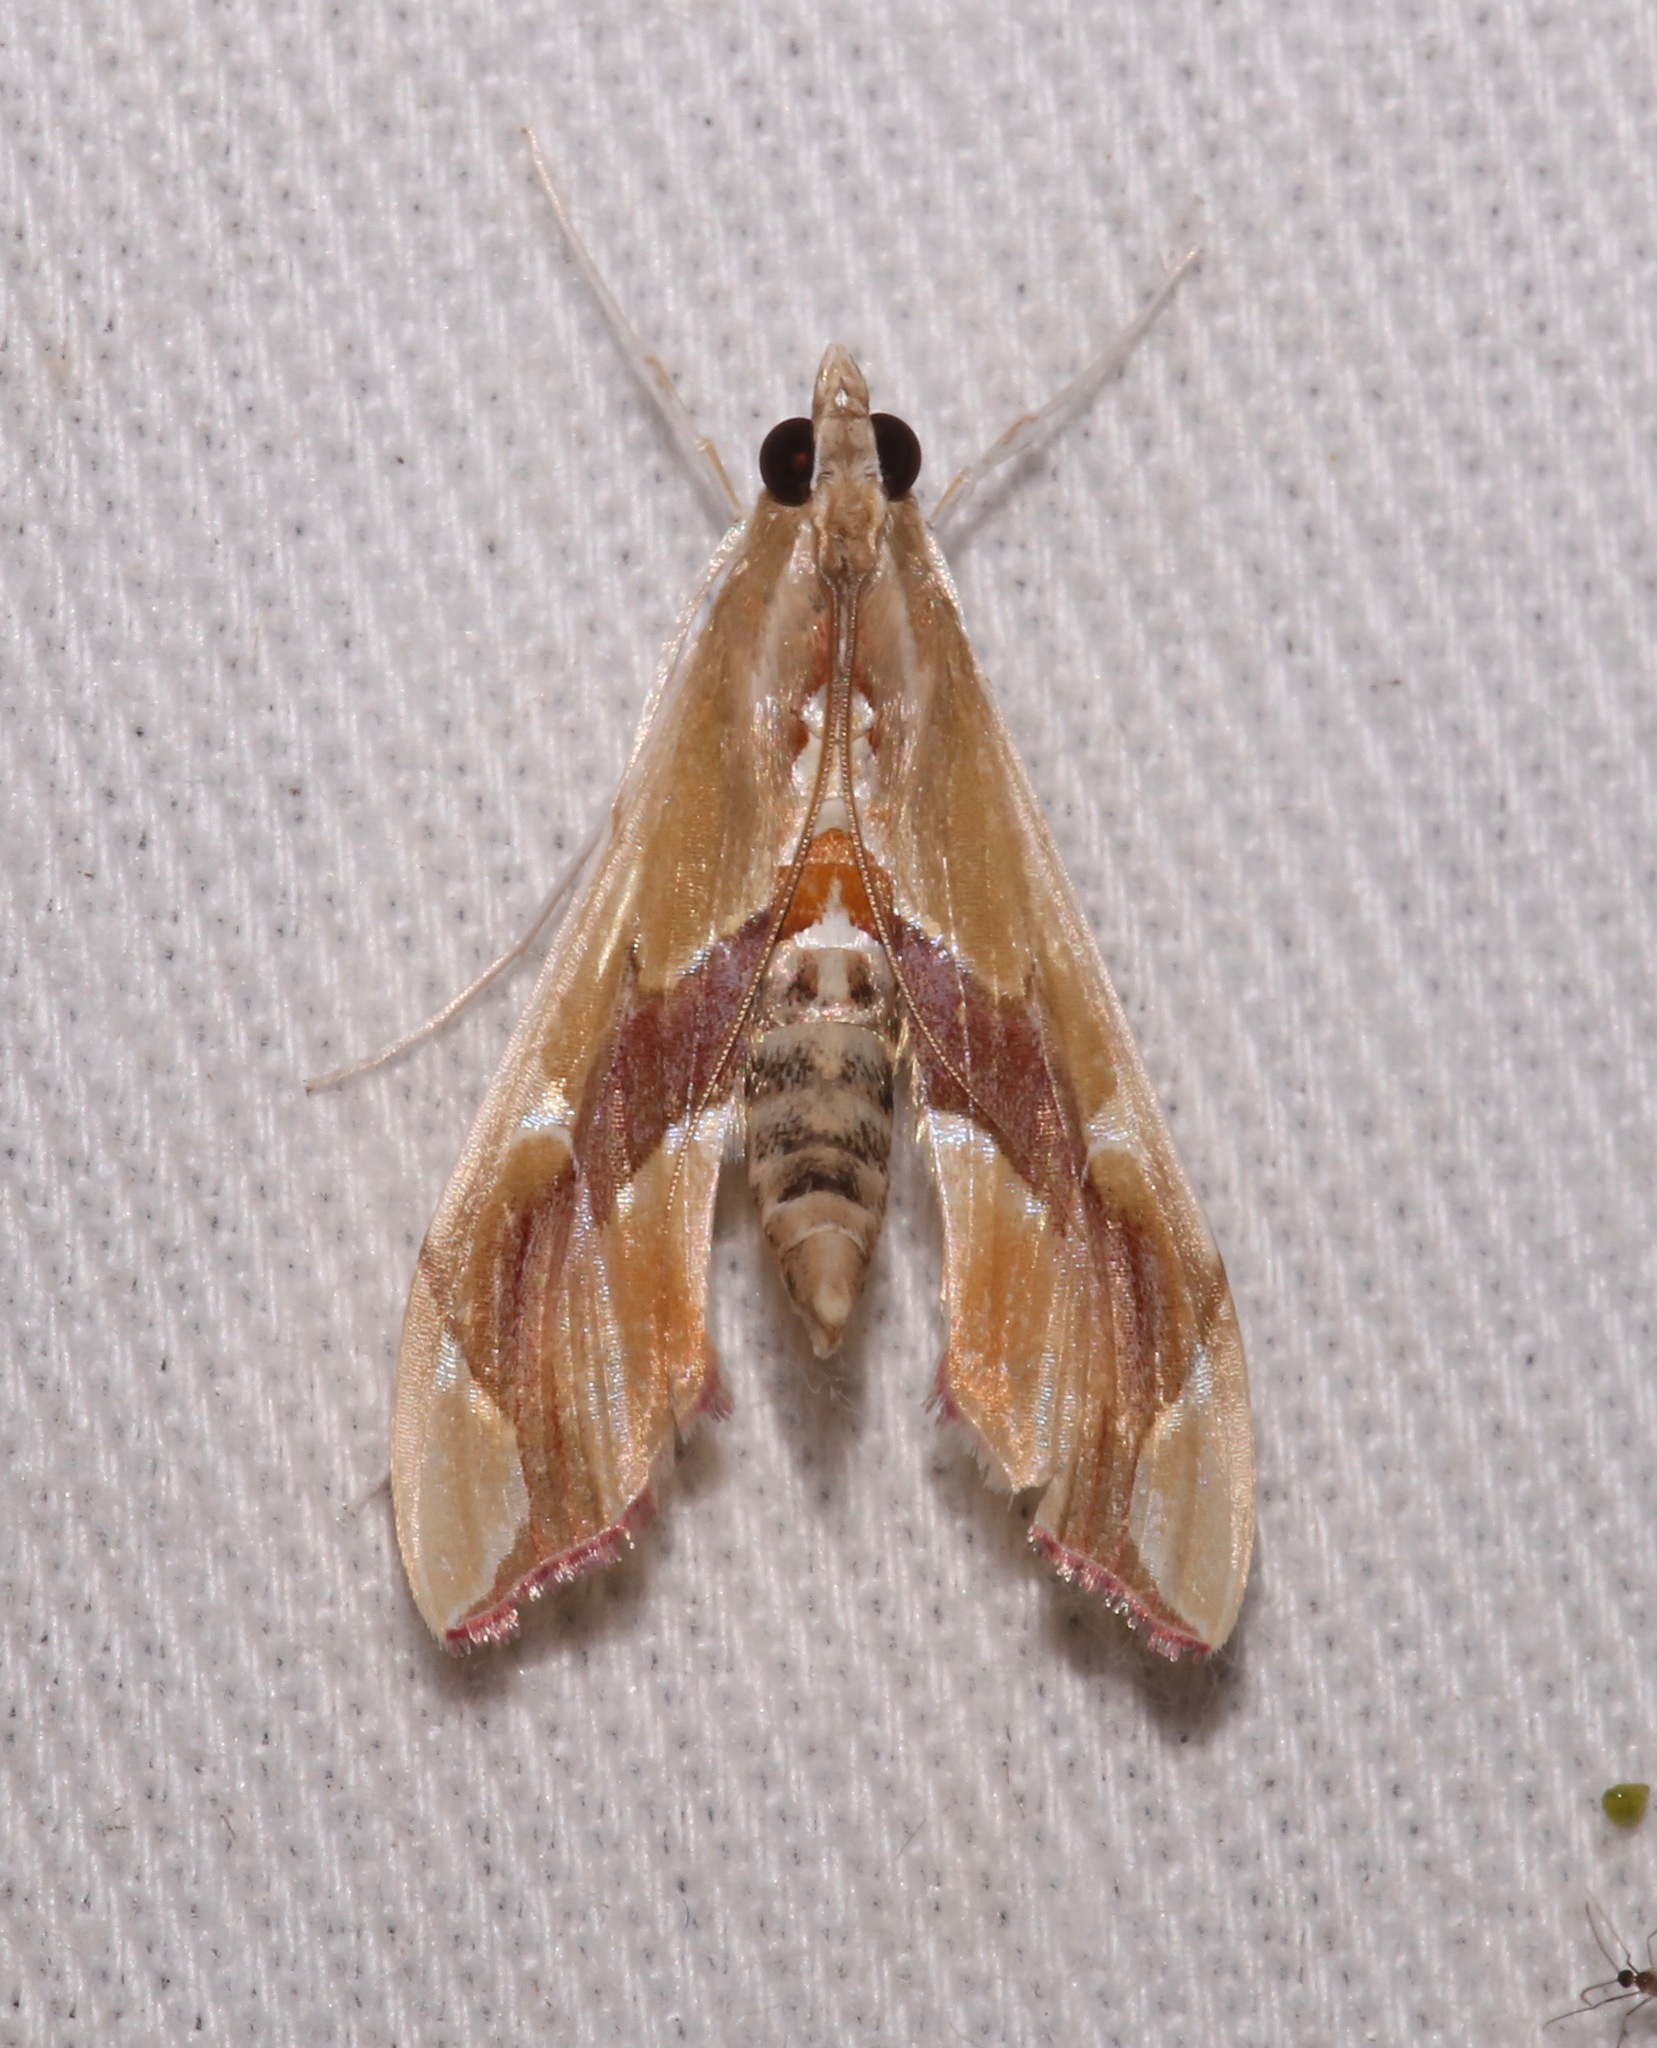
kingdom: Animalia
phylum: Arthropoda
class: Insecta
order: Lepidoptera
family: Crambidae
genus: Agathodes
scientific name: Agathodes monstralis
